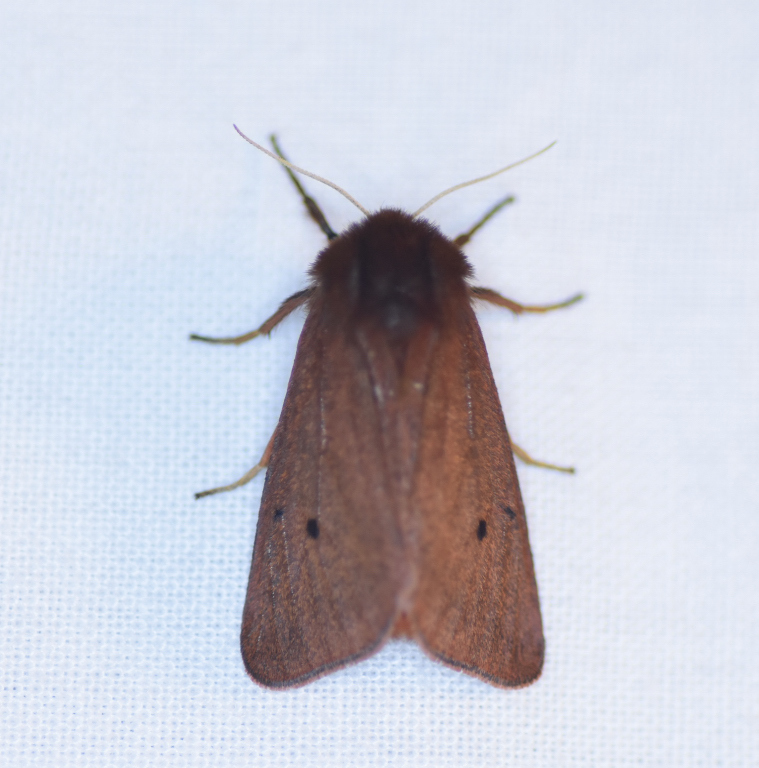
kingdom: Animalia
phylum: Arthropoda
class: Insecta
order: Lepidoptera
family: Erebidae
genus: Phragmatobia
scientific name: Phragmatobia fuliginosa
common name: Ruby tiger
